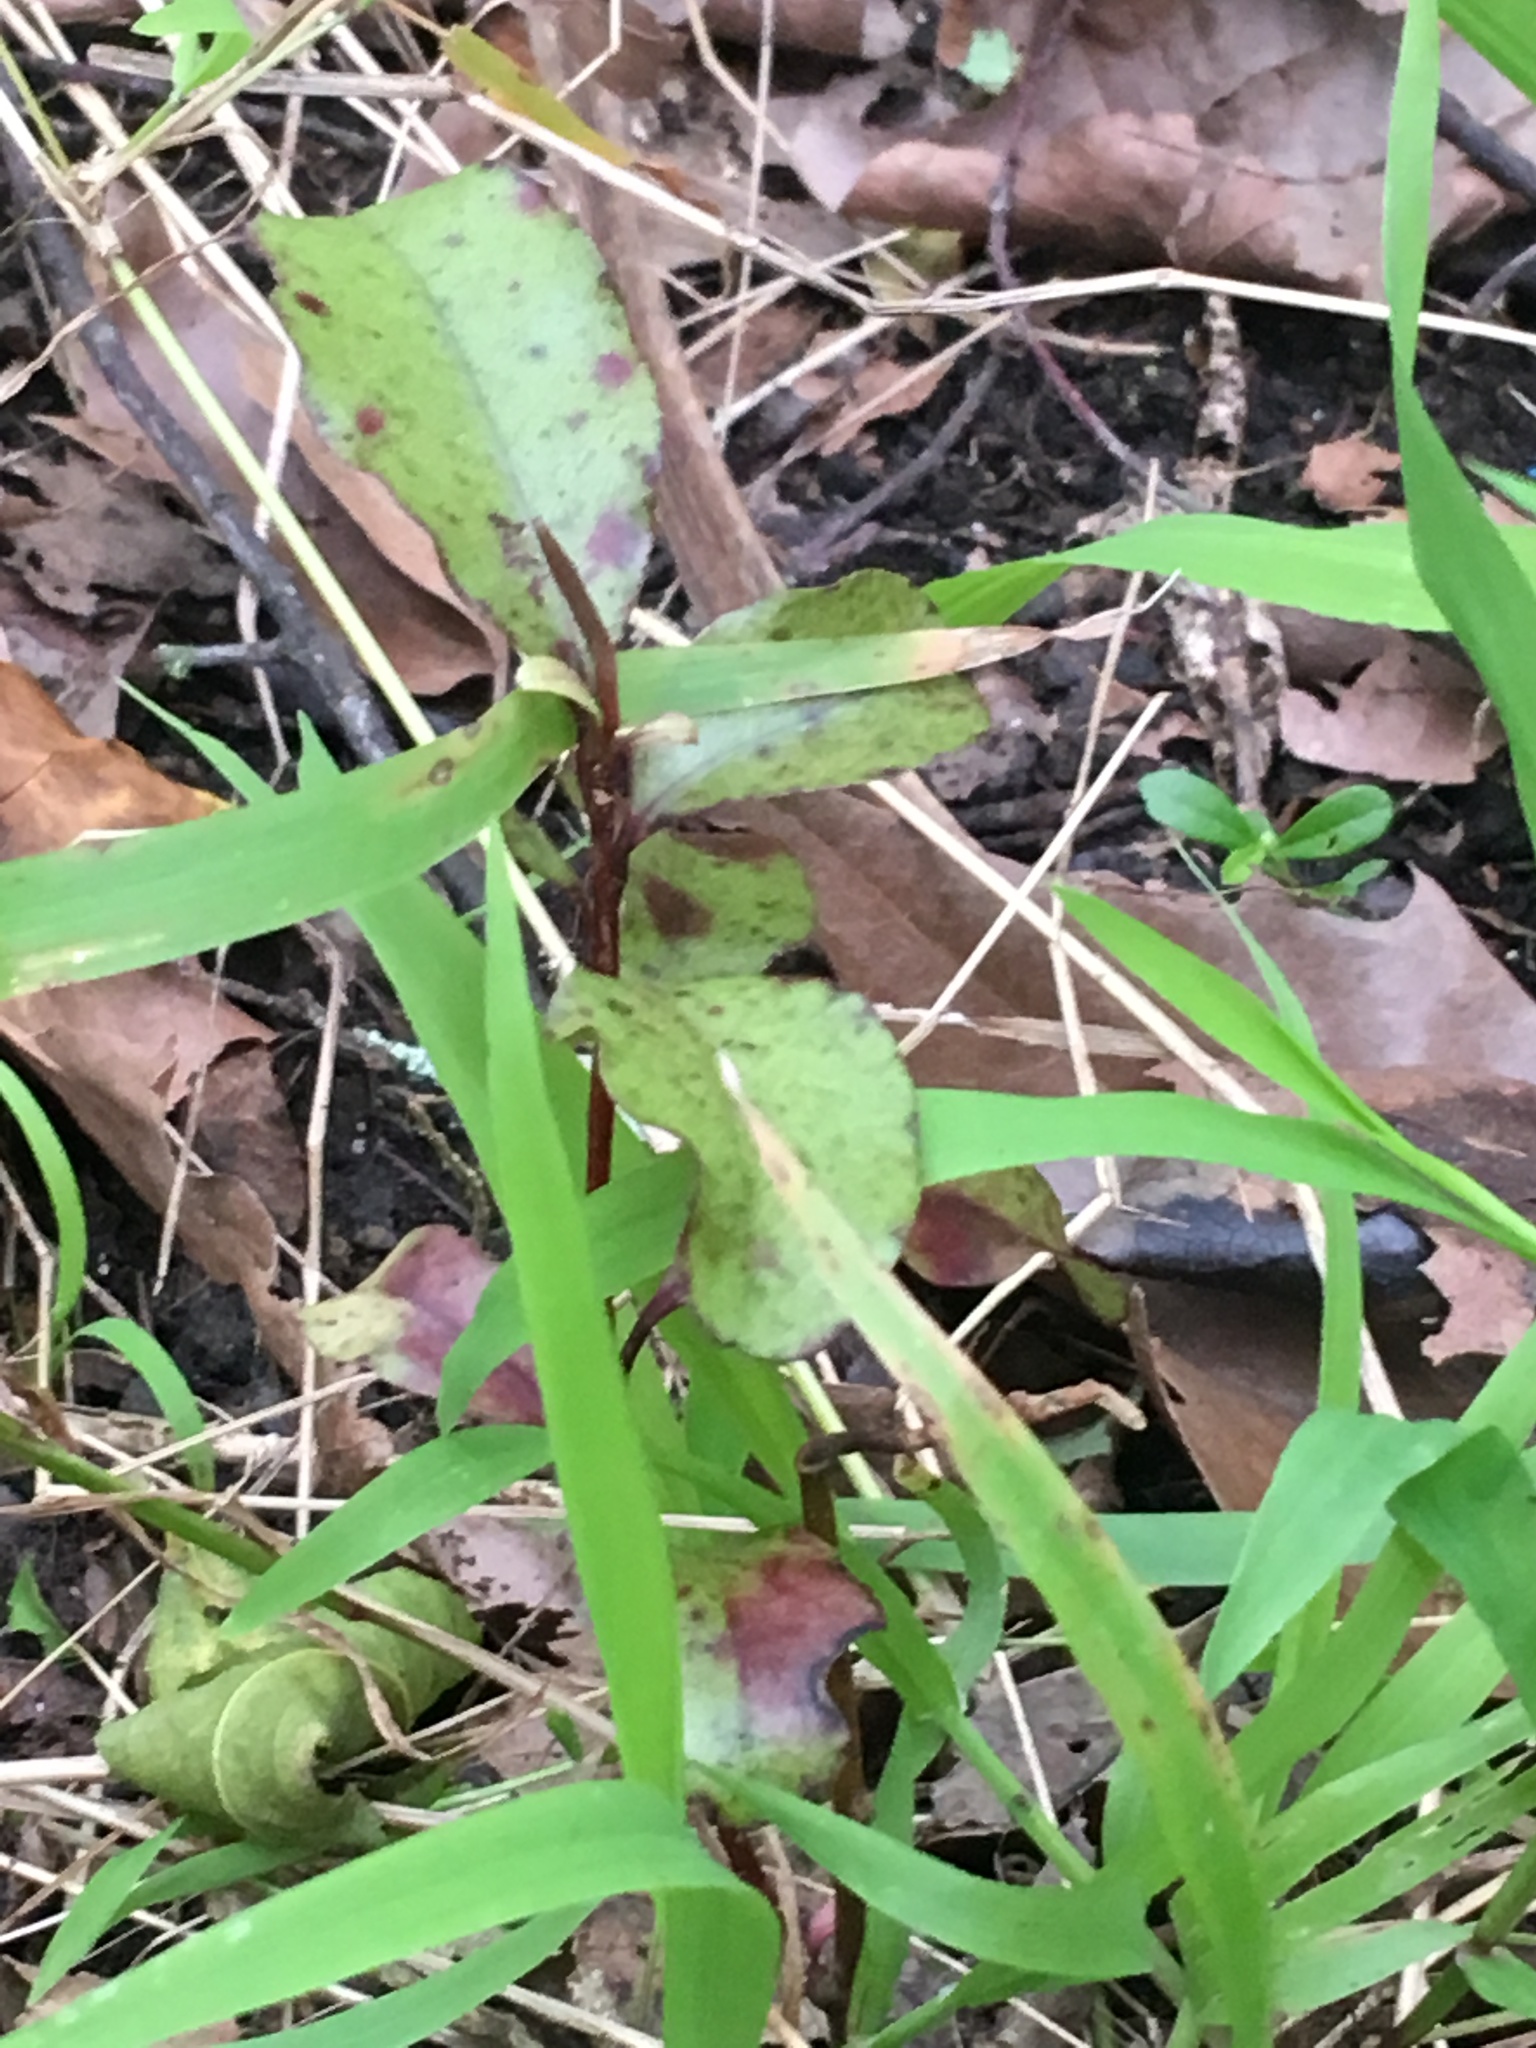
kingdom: Plantae
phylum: Tracheophyta
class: Magnoliopsida
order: Ericales
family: Primulaceae
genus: Myrsine
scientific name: Myrsine australis
